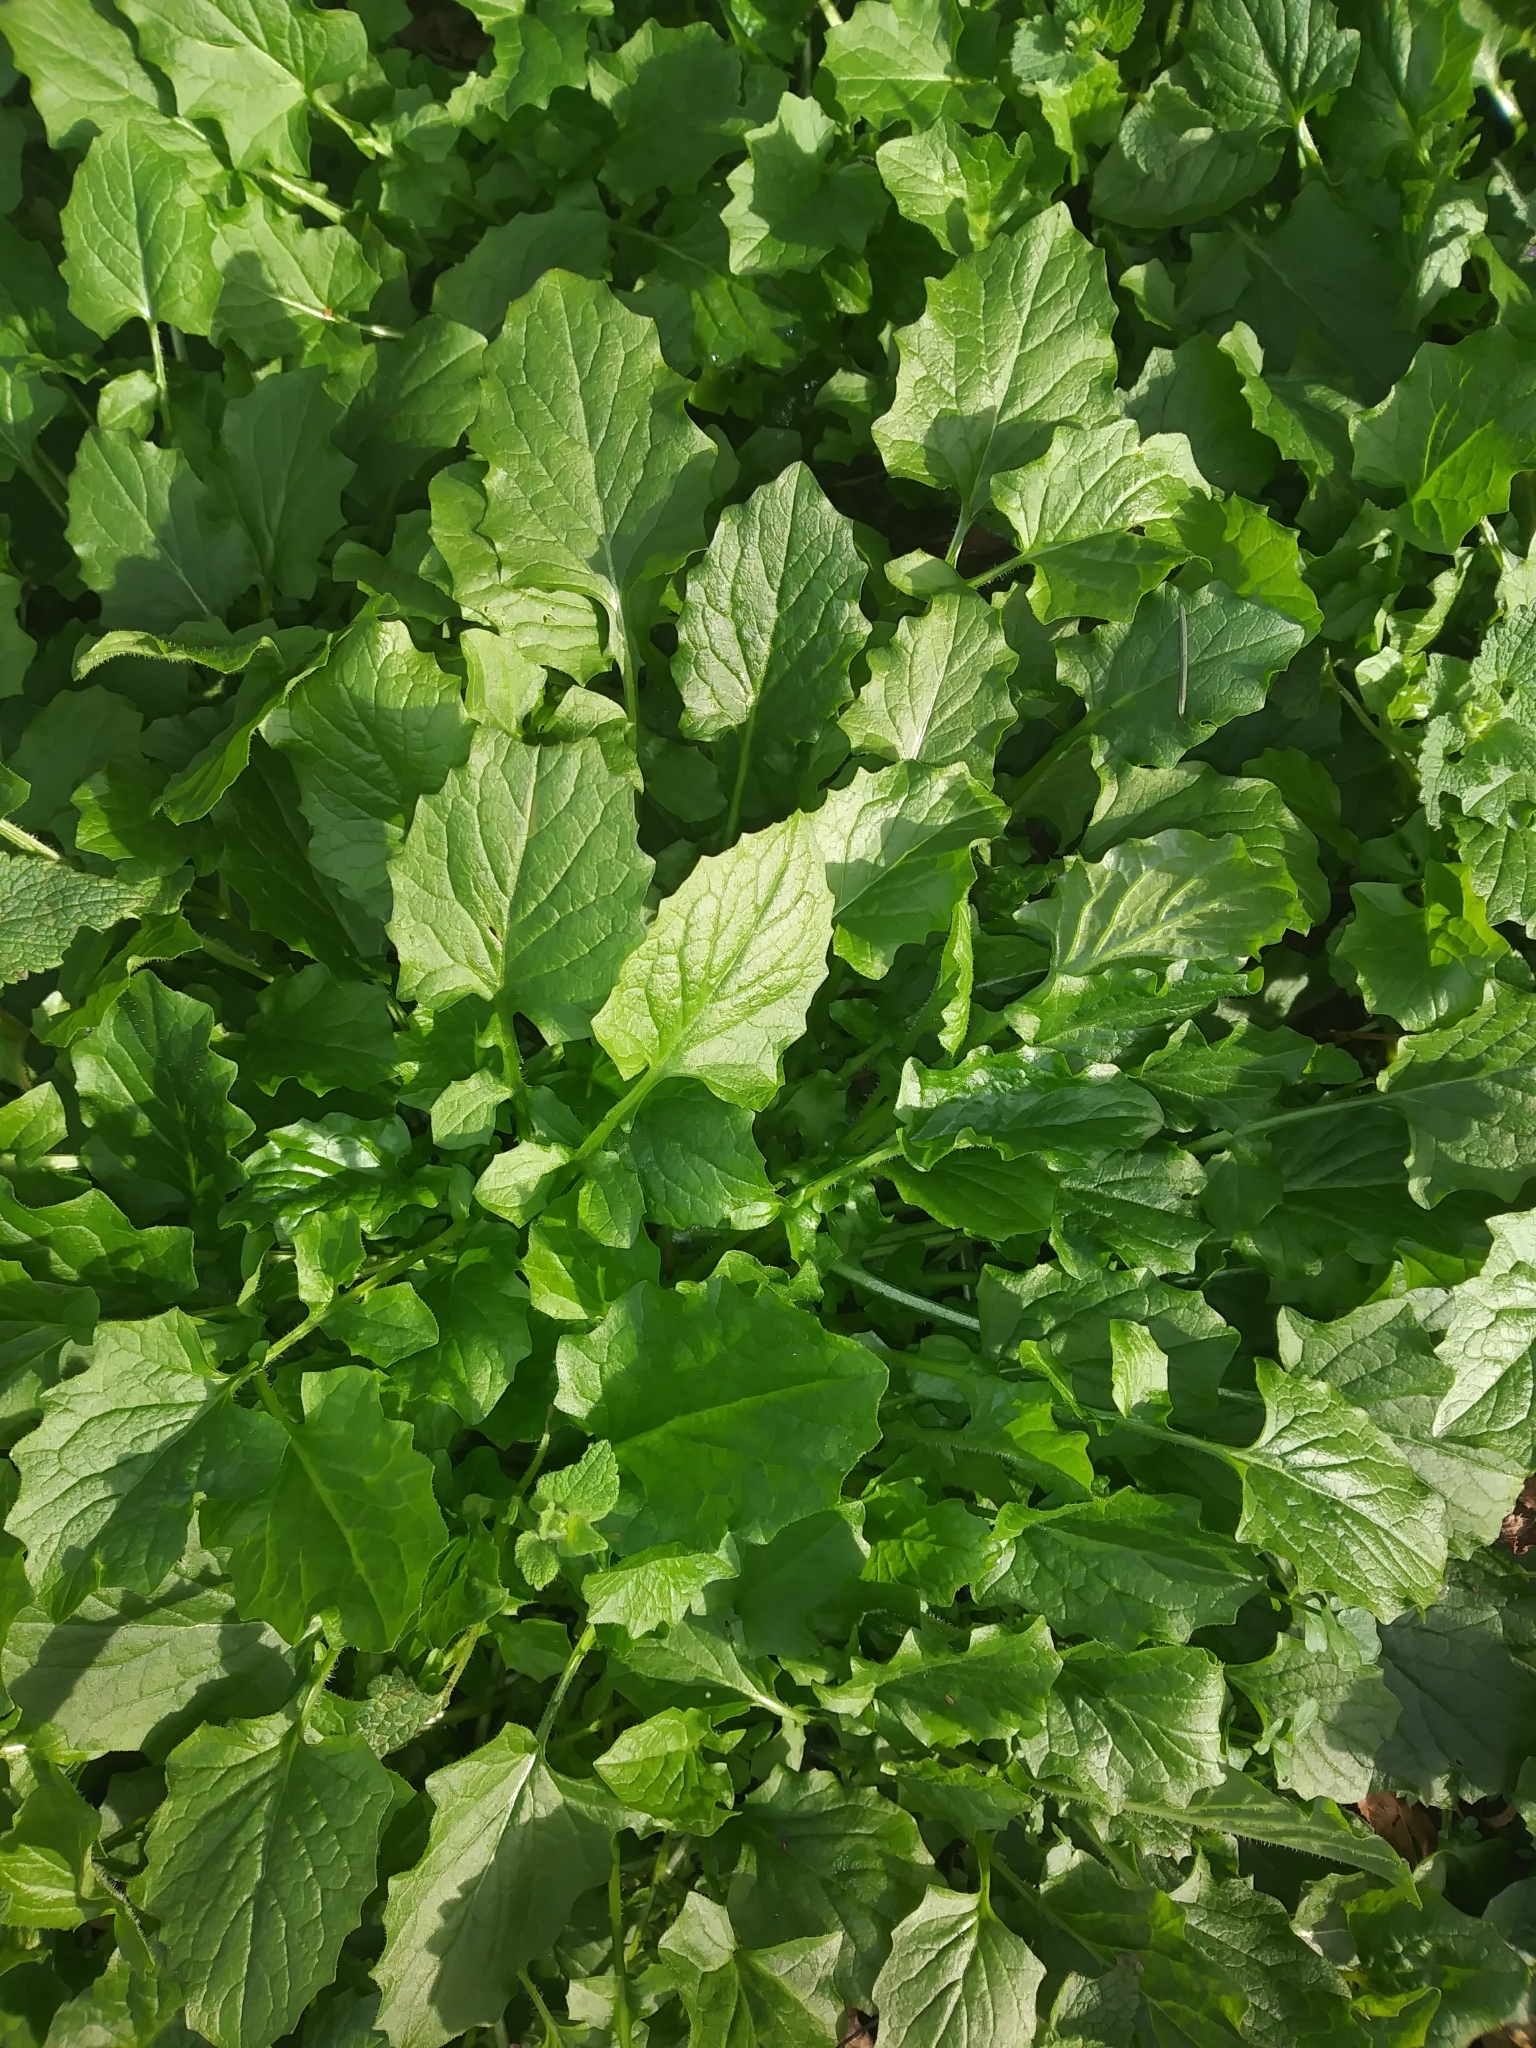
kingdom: Plantae
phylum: Tracheophyta
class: Magnoliopsida
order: Asterales
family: Asteraceae
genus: Lapsana
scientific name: Lapsana communis
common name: Nipplewort
